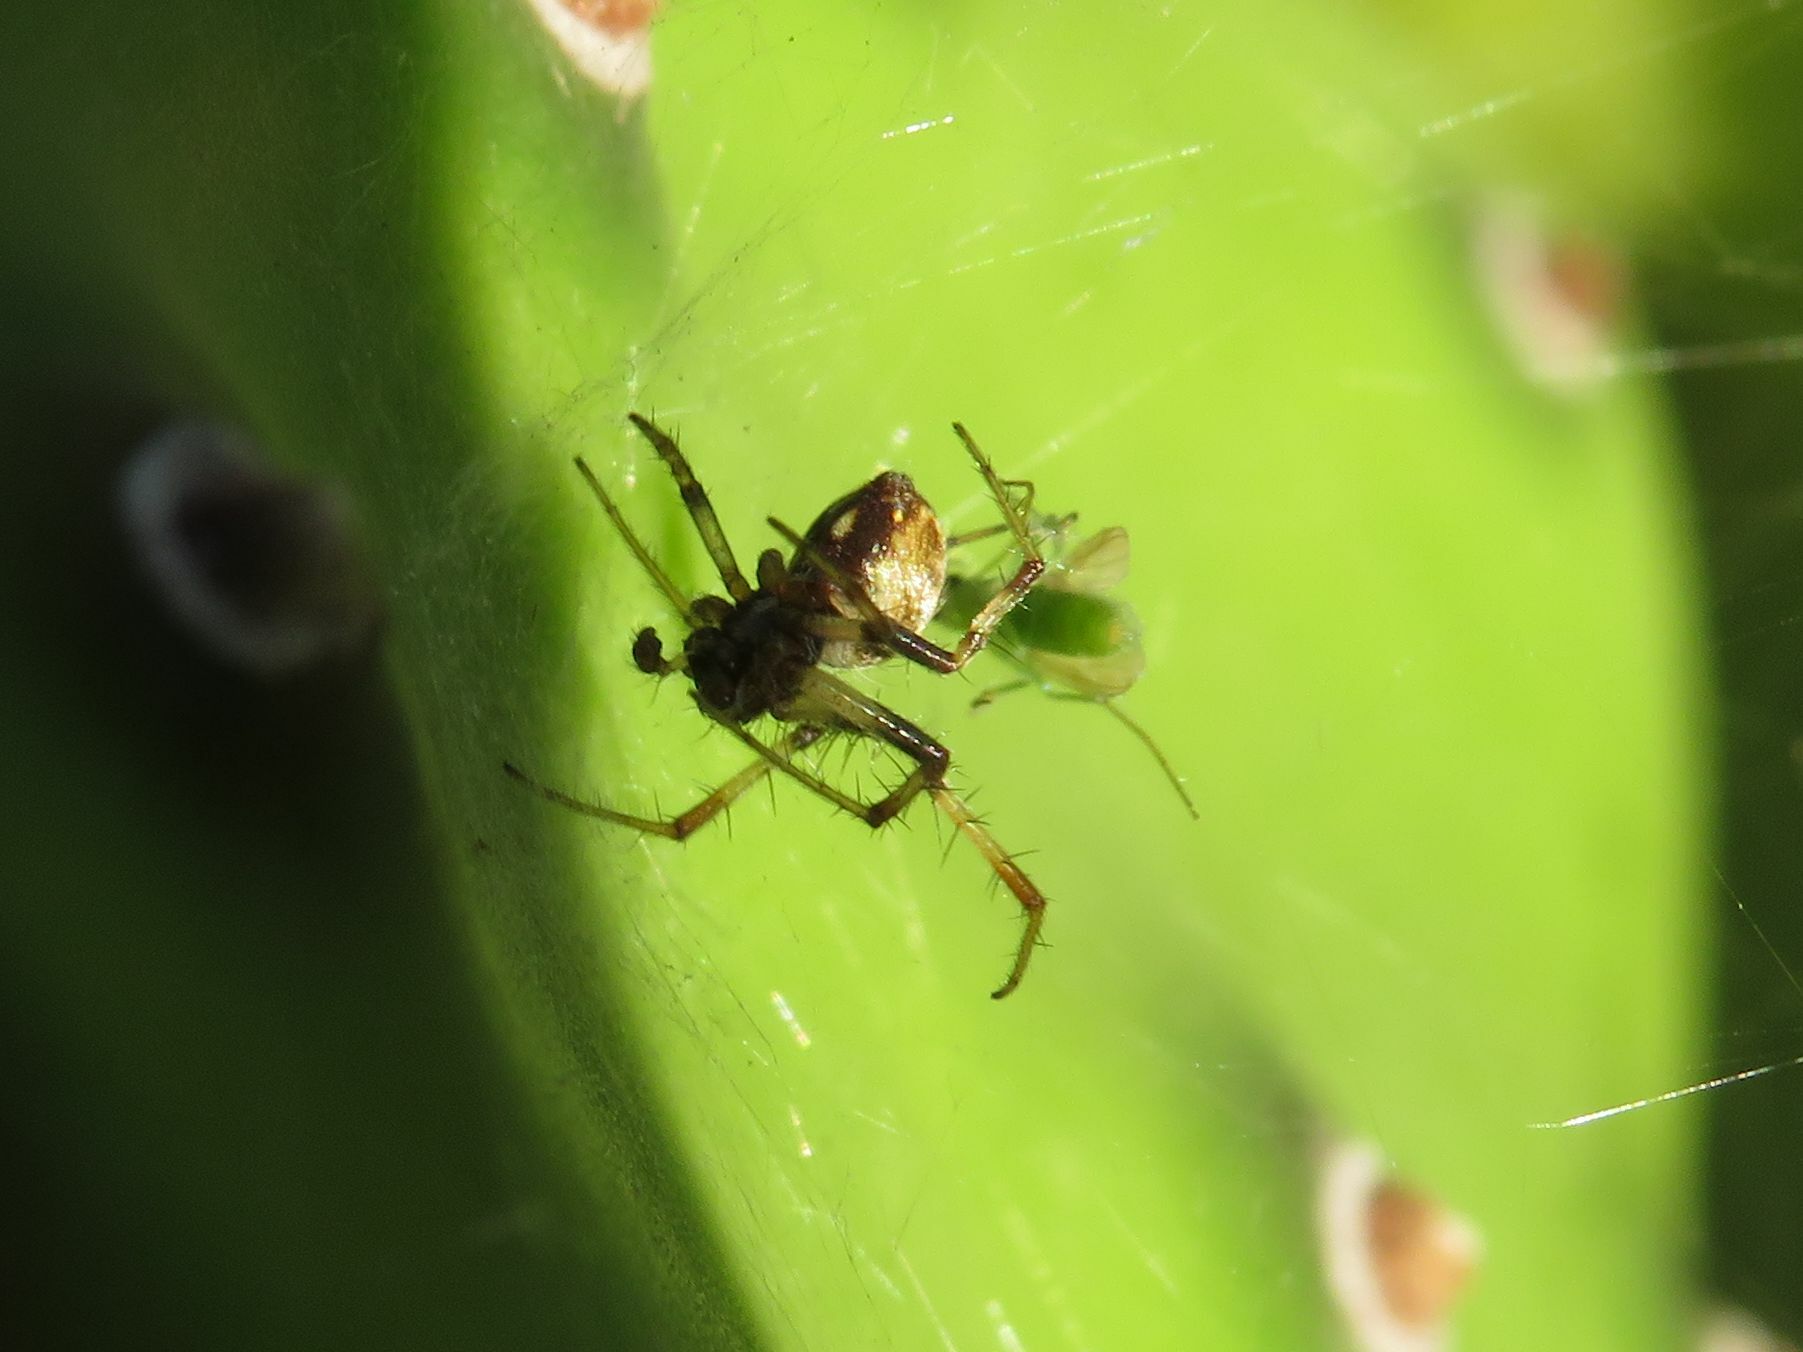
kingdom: Animalia
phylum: Arthropoda
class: Arachnida
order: Araneae
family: Araneidae
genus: Metepeira
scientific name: Metepeira
